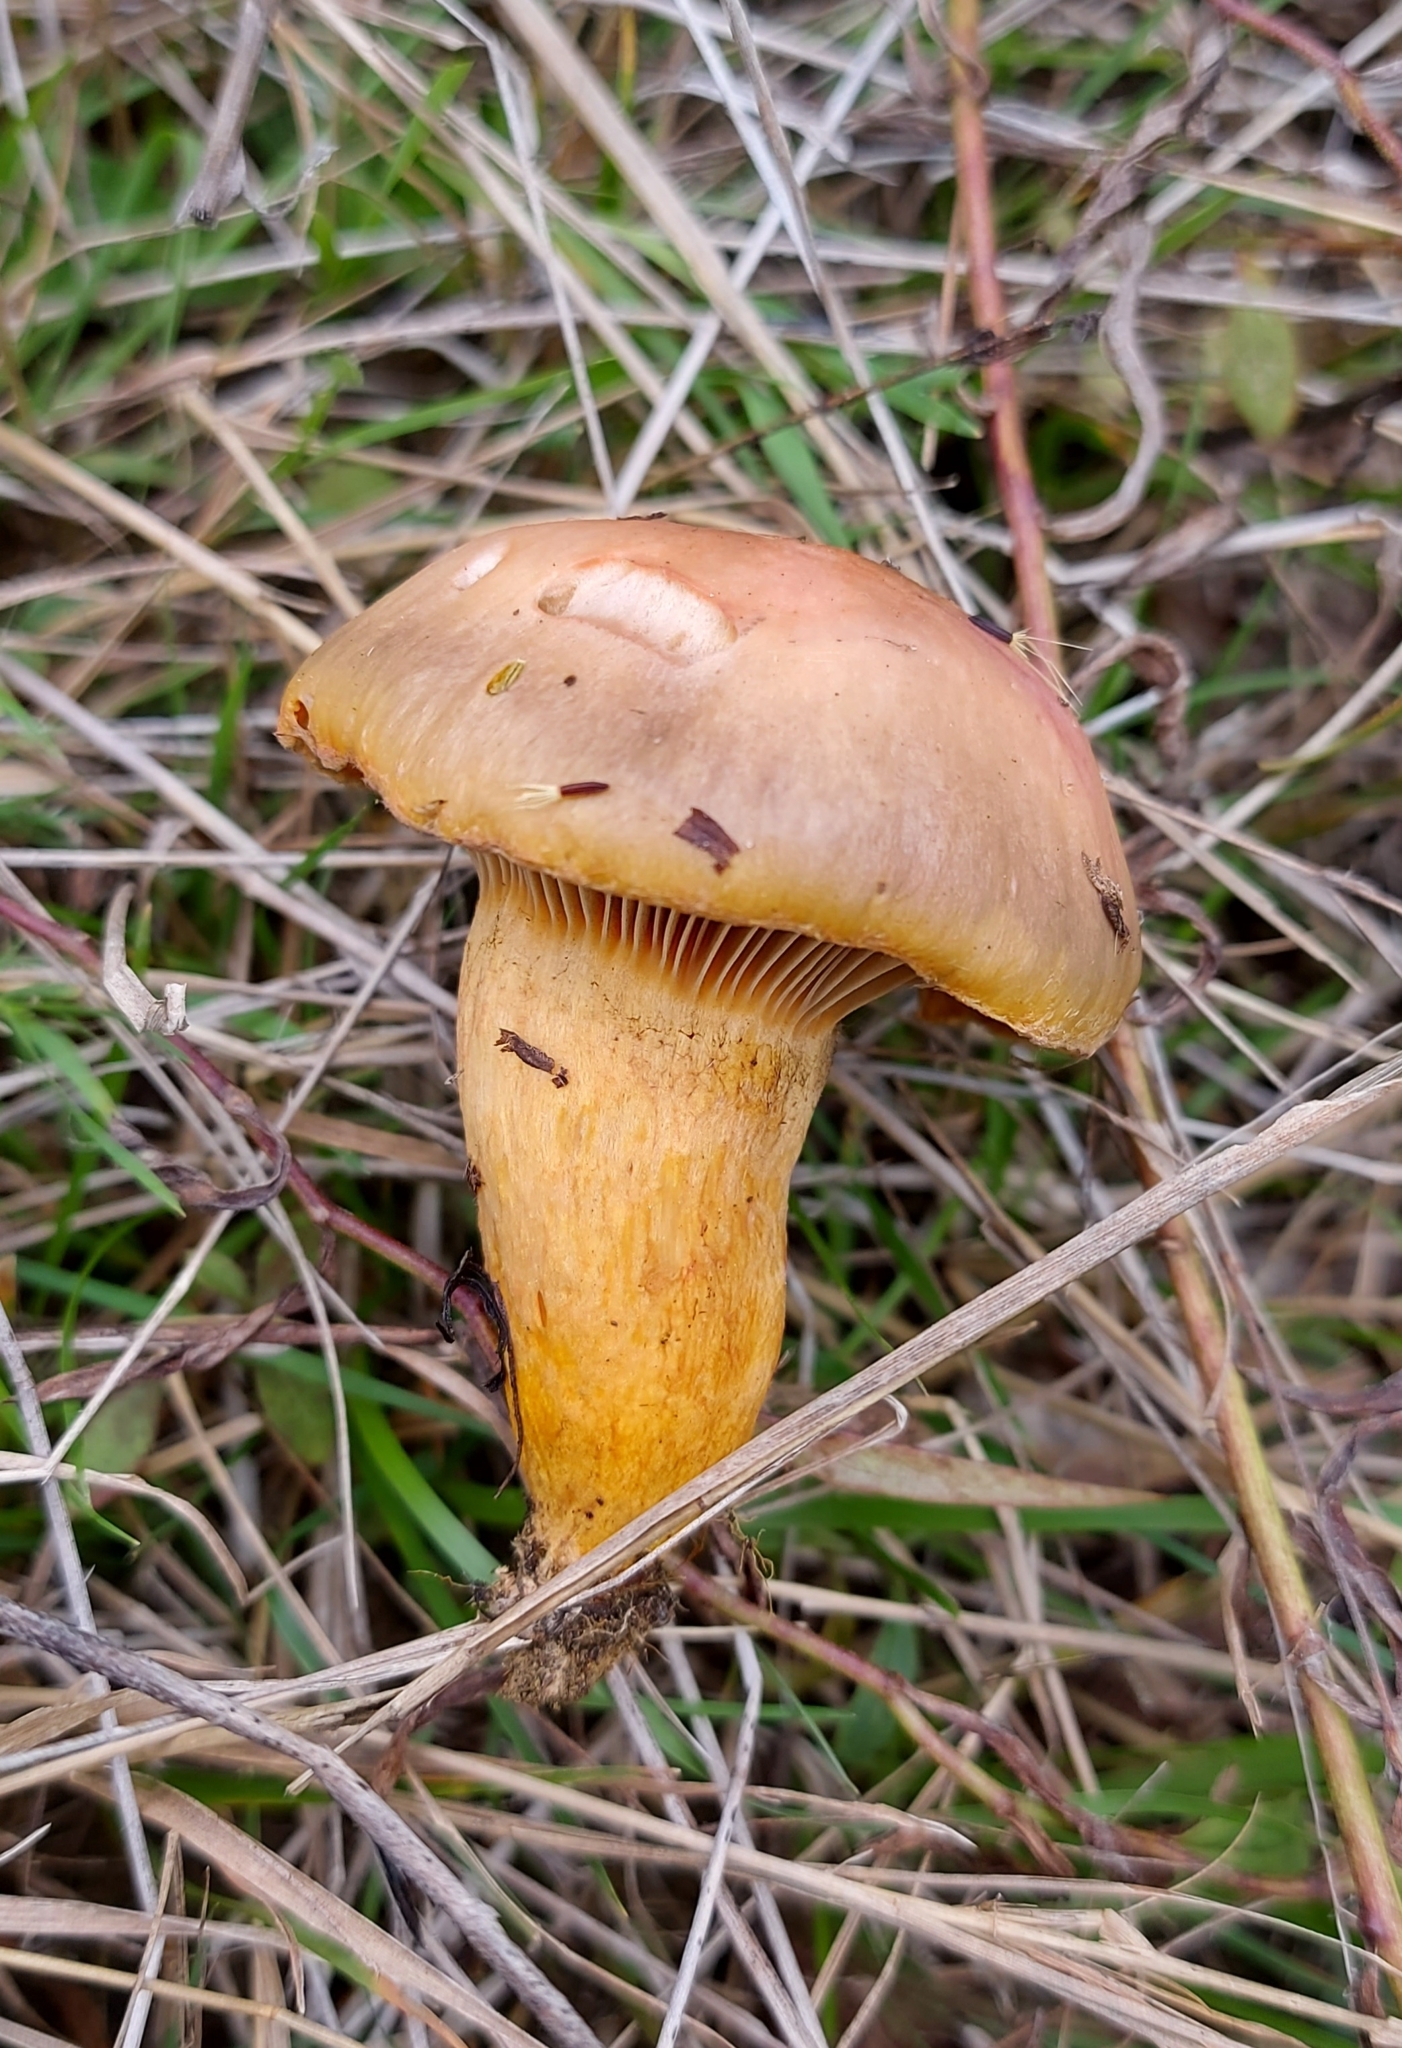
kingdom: Fungi
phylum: Basidiomycota
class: Agaricomycetes
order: Boletales
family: Gomphidiaceae
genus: Chroogomphus
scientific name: Chroogomphus rutilus
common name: Copper spike
